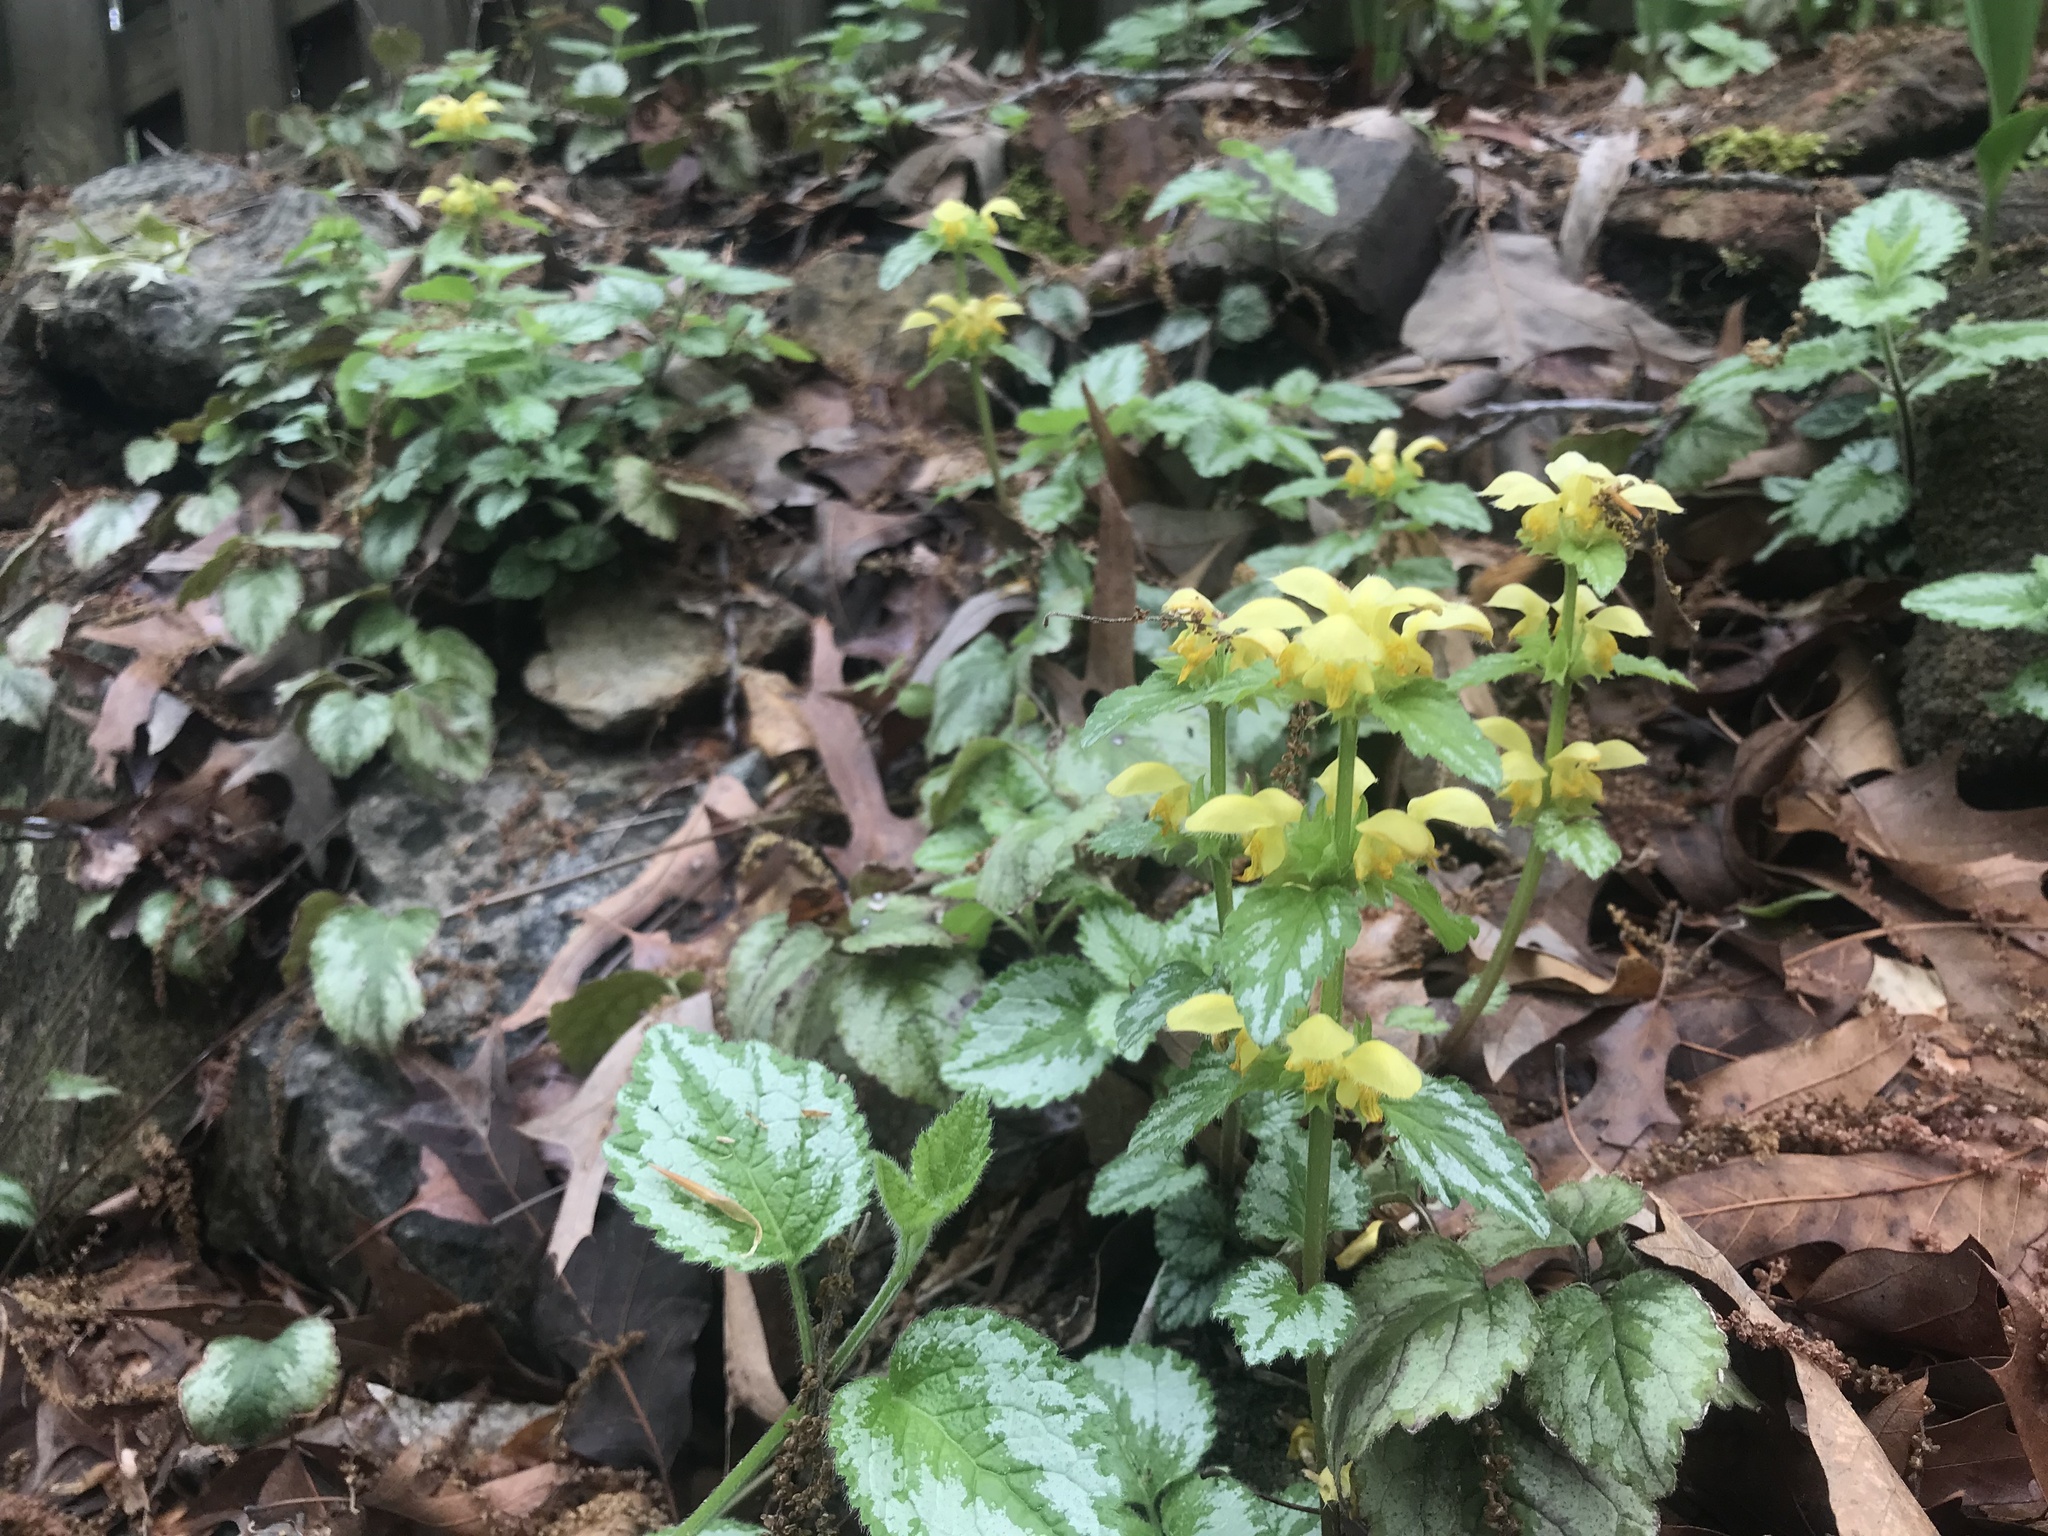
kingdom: Plantae
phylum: Tracheophyta
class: Magnoliopsida
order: Lamiales
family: Lamiaceae
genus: Lamium
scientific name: Lamium galeobdolon
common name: Yellow archangel
